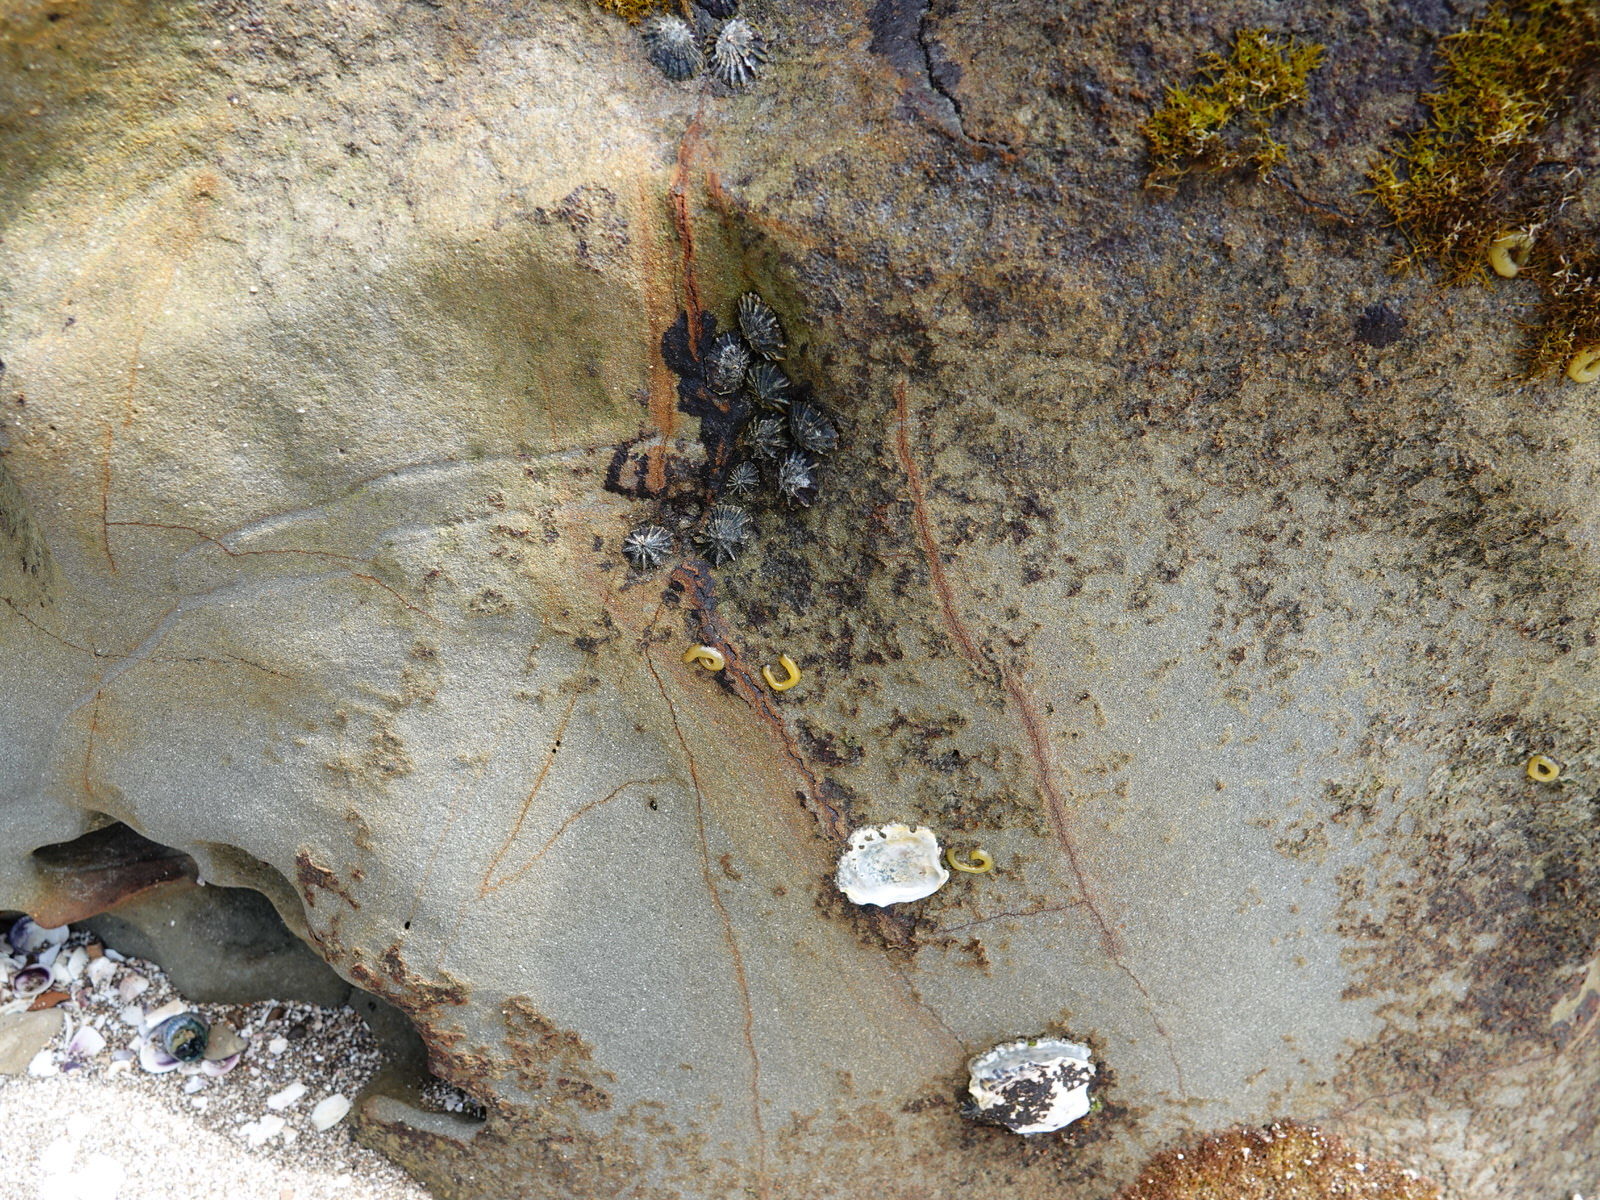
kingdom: Animalia
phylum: Mollusca
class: Gastropoda
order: Siphonariida
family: Siphonariidae
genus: Siphonaria
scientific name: Siphonaria australis
